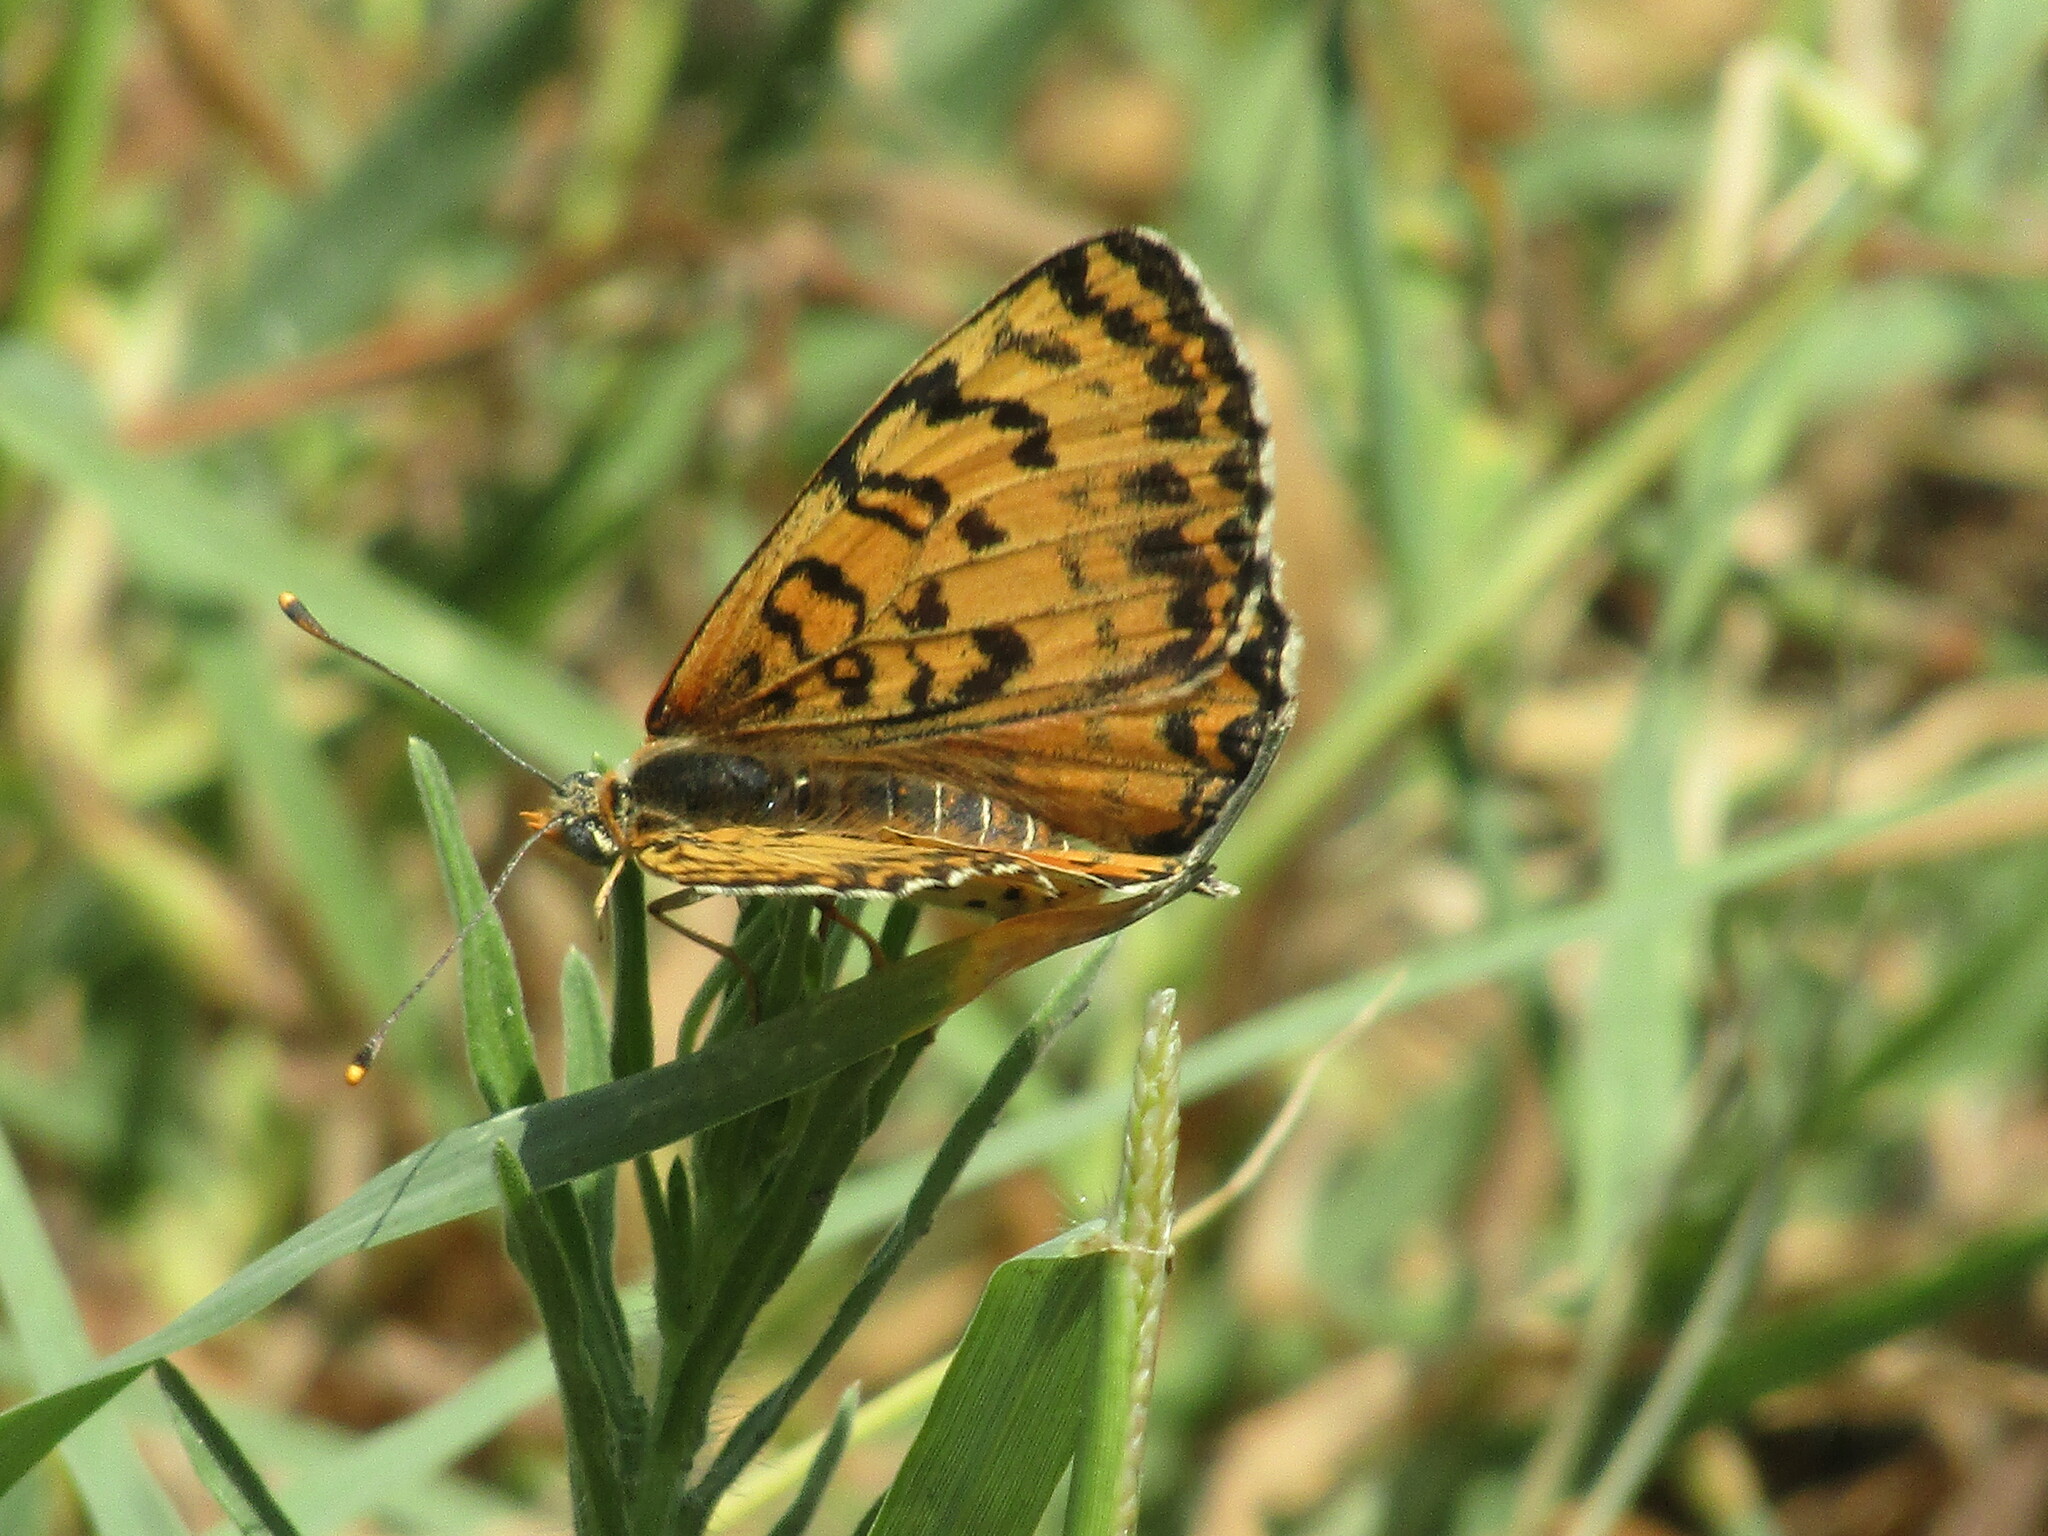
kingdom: Animalia
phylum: Arthropoda
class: Insecta
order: Lepidoptera
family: Nymphalidae
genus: Melitaea
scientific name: Melitaea didyma
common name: Spotted fritillary
